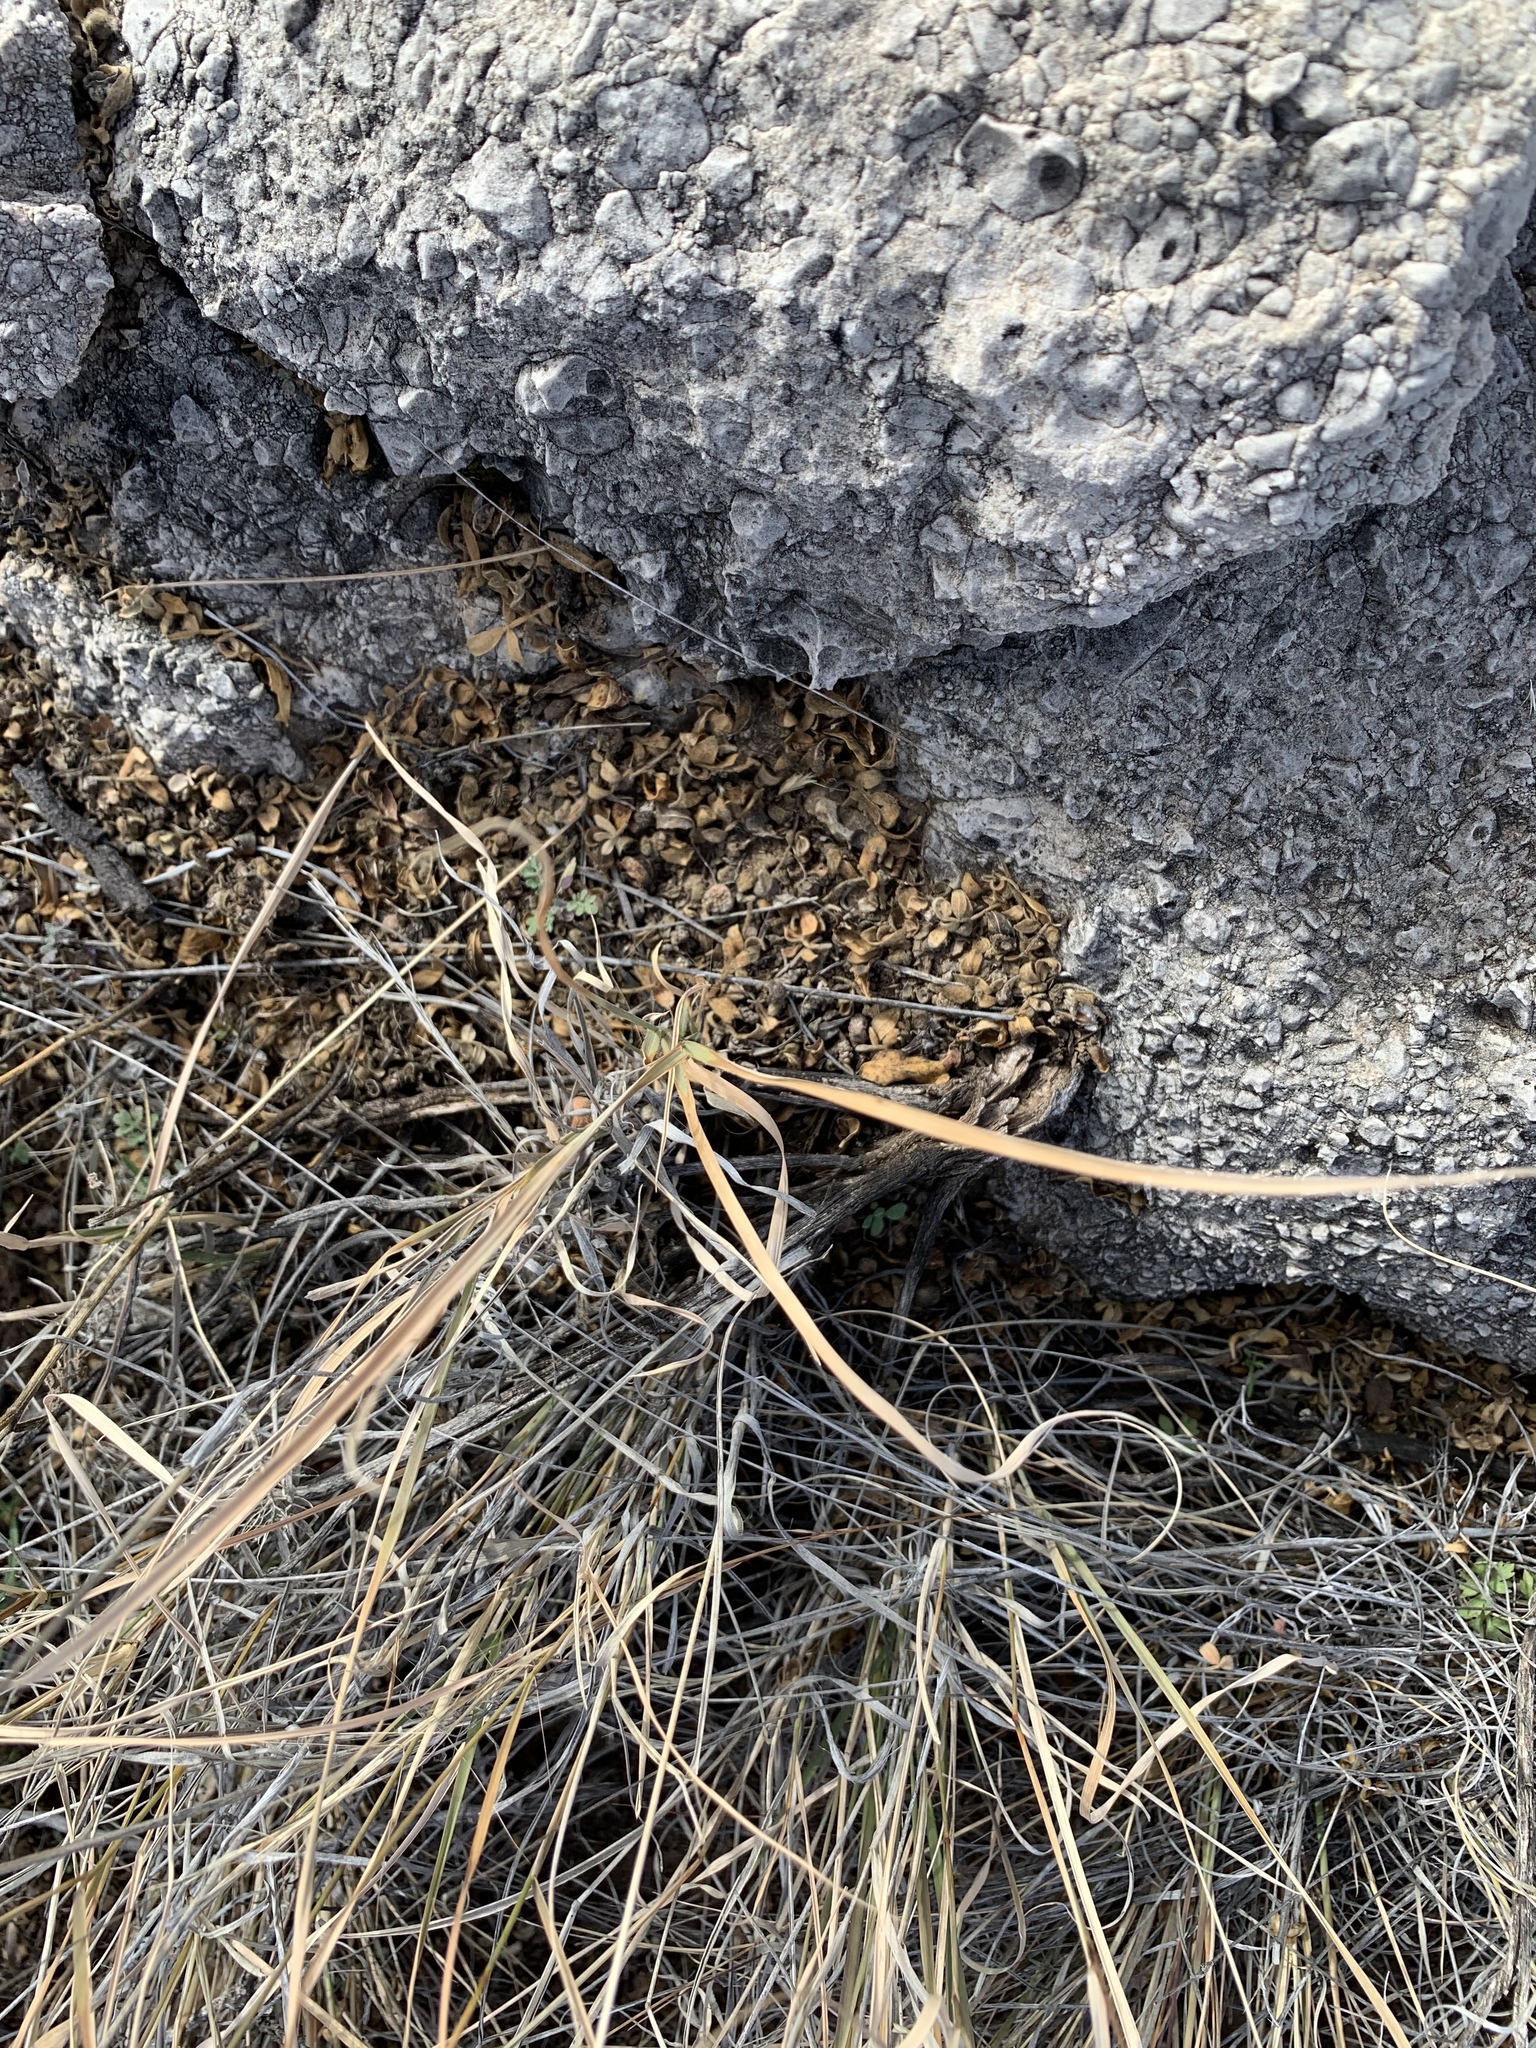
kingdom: Plantae
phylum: Tracheophyta
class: Magnoliopsida
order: Sapindales
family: Anacardiaceae
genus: Rhus
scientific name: Rhus microphylla
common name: Desert sumac
